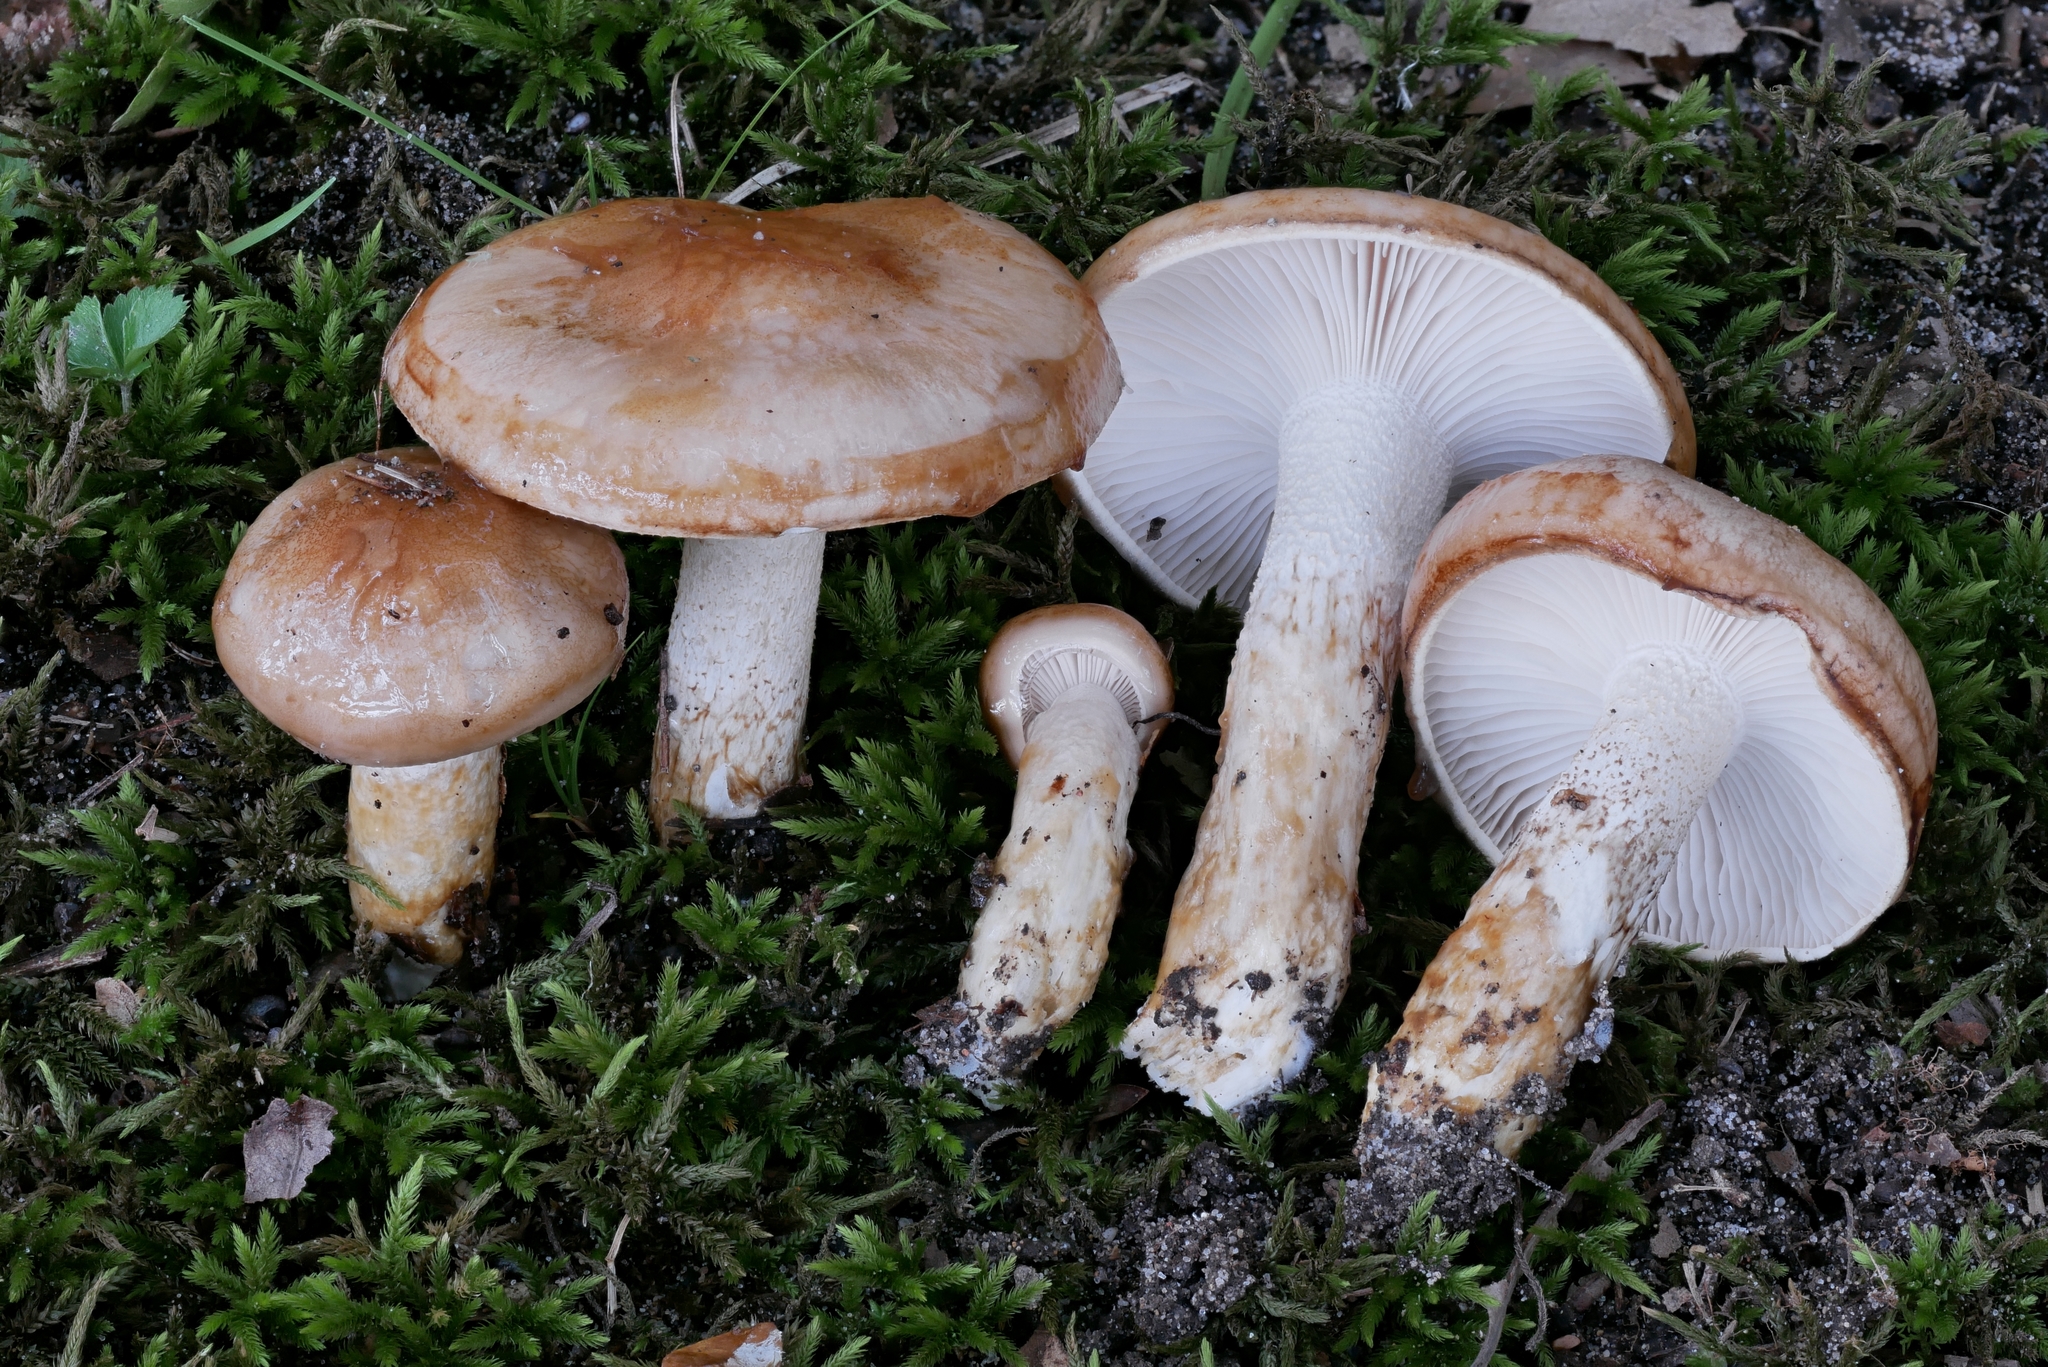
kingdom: Fungi
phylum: Basidiomycota
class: Agaricomycetes
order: Agaricales
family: Hygrophoraceae
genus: Hygrophorus
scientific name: Hygrophorus glutinosus
